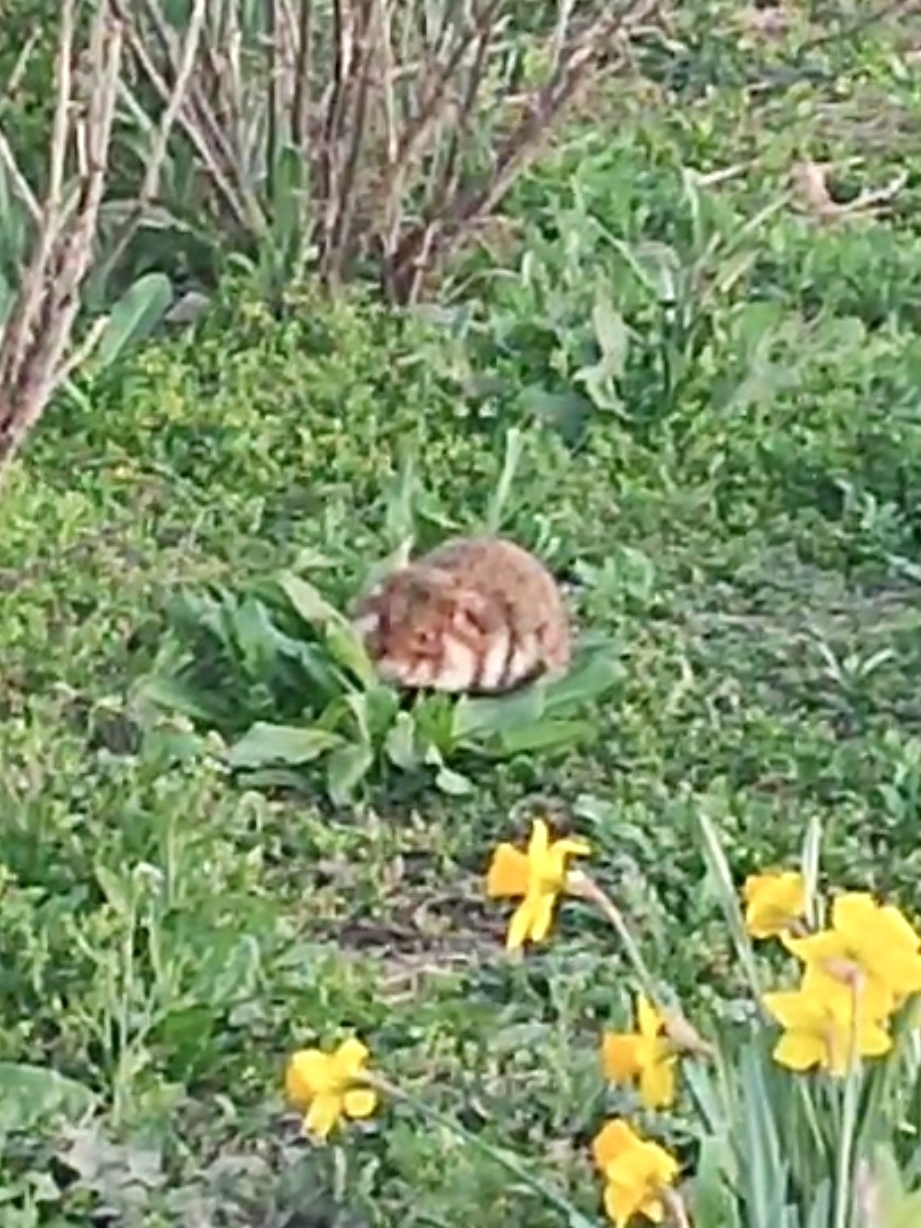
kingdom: Animalia
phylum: Chordata
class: Mammalia
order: Rodentia
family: Cricetidae
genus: Cricetus
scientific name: Cricetus cricetus
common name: Common hamster
